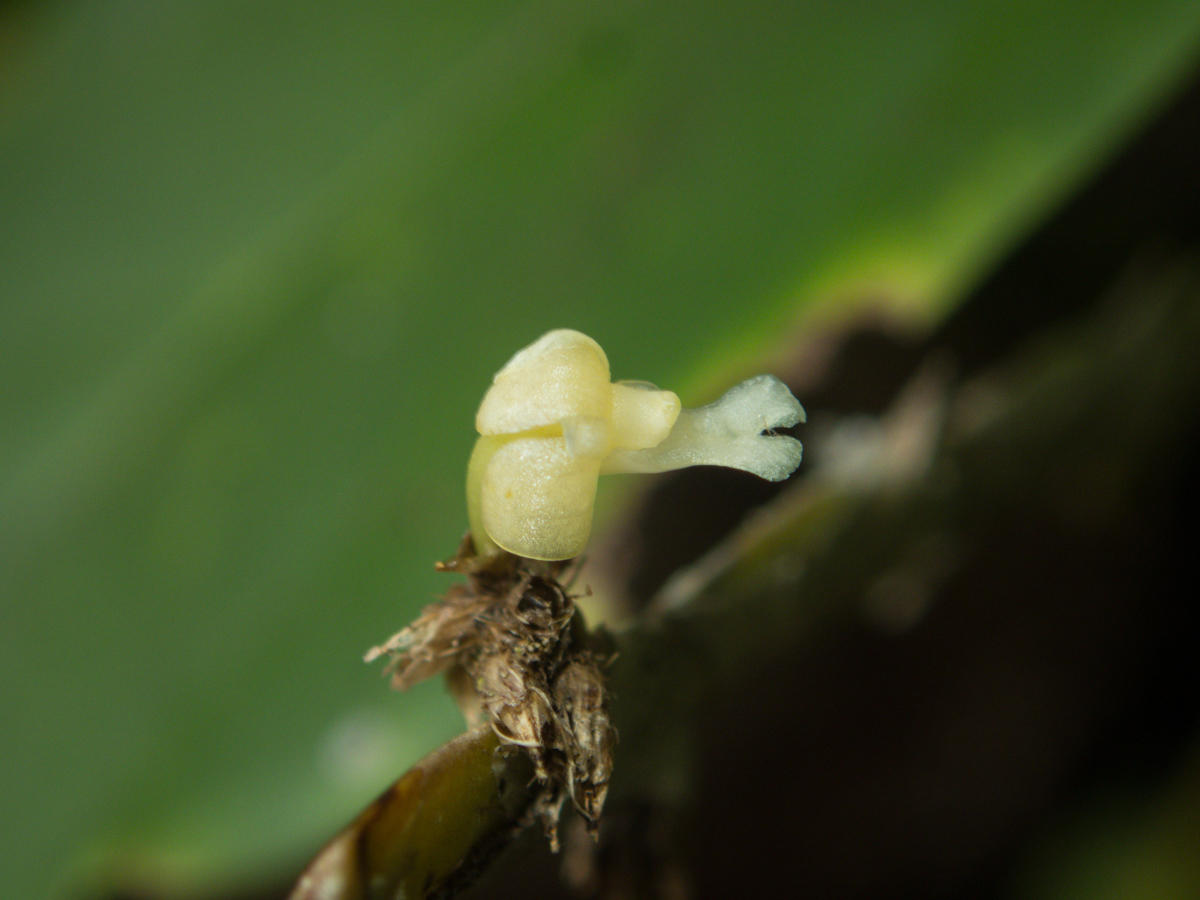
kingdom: Plantae
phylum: Tracheophyta
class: Liliopsida
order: Asparagales
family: Orchidaceae
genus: Dendrobium
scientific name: Dendrobium aloifolium
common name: Aloe-like dendrobium
